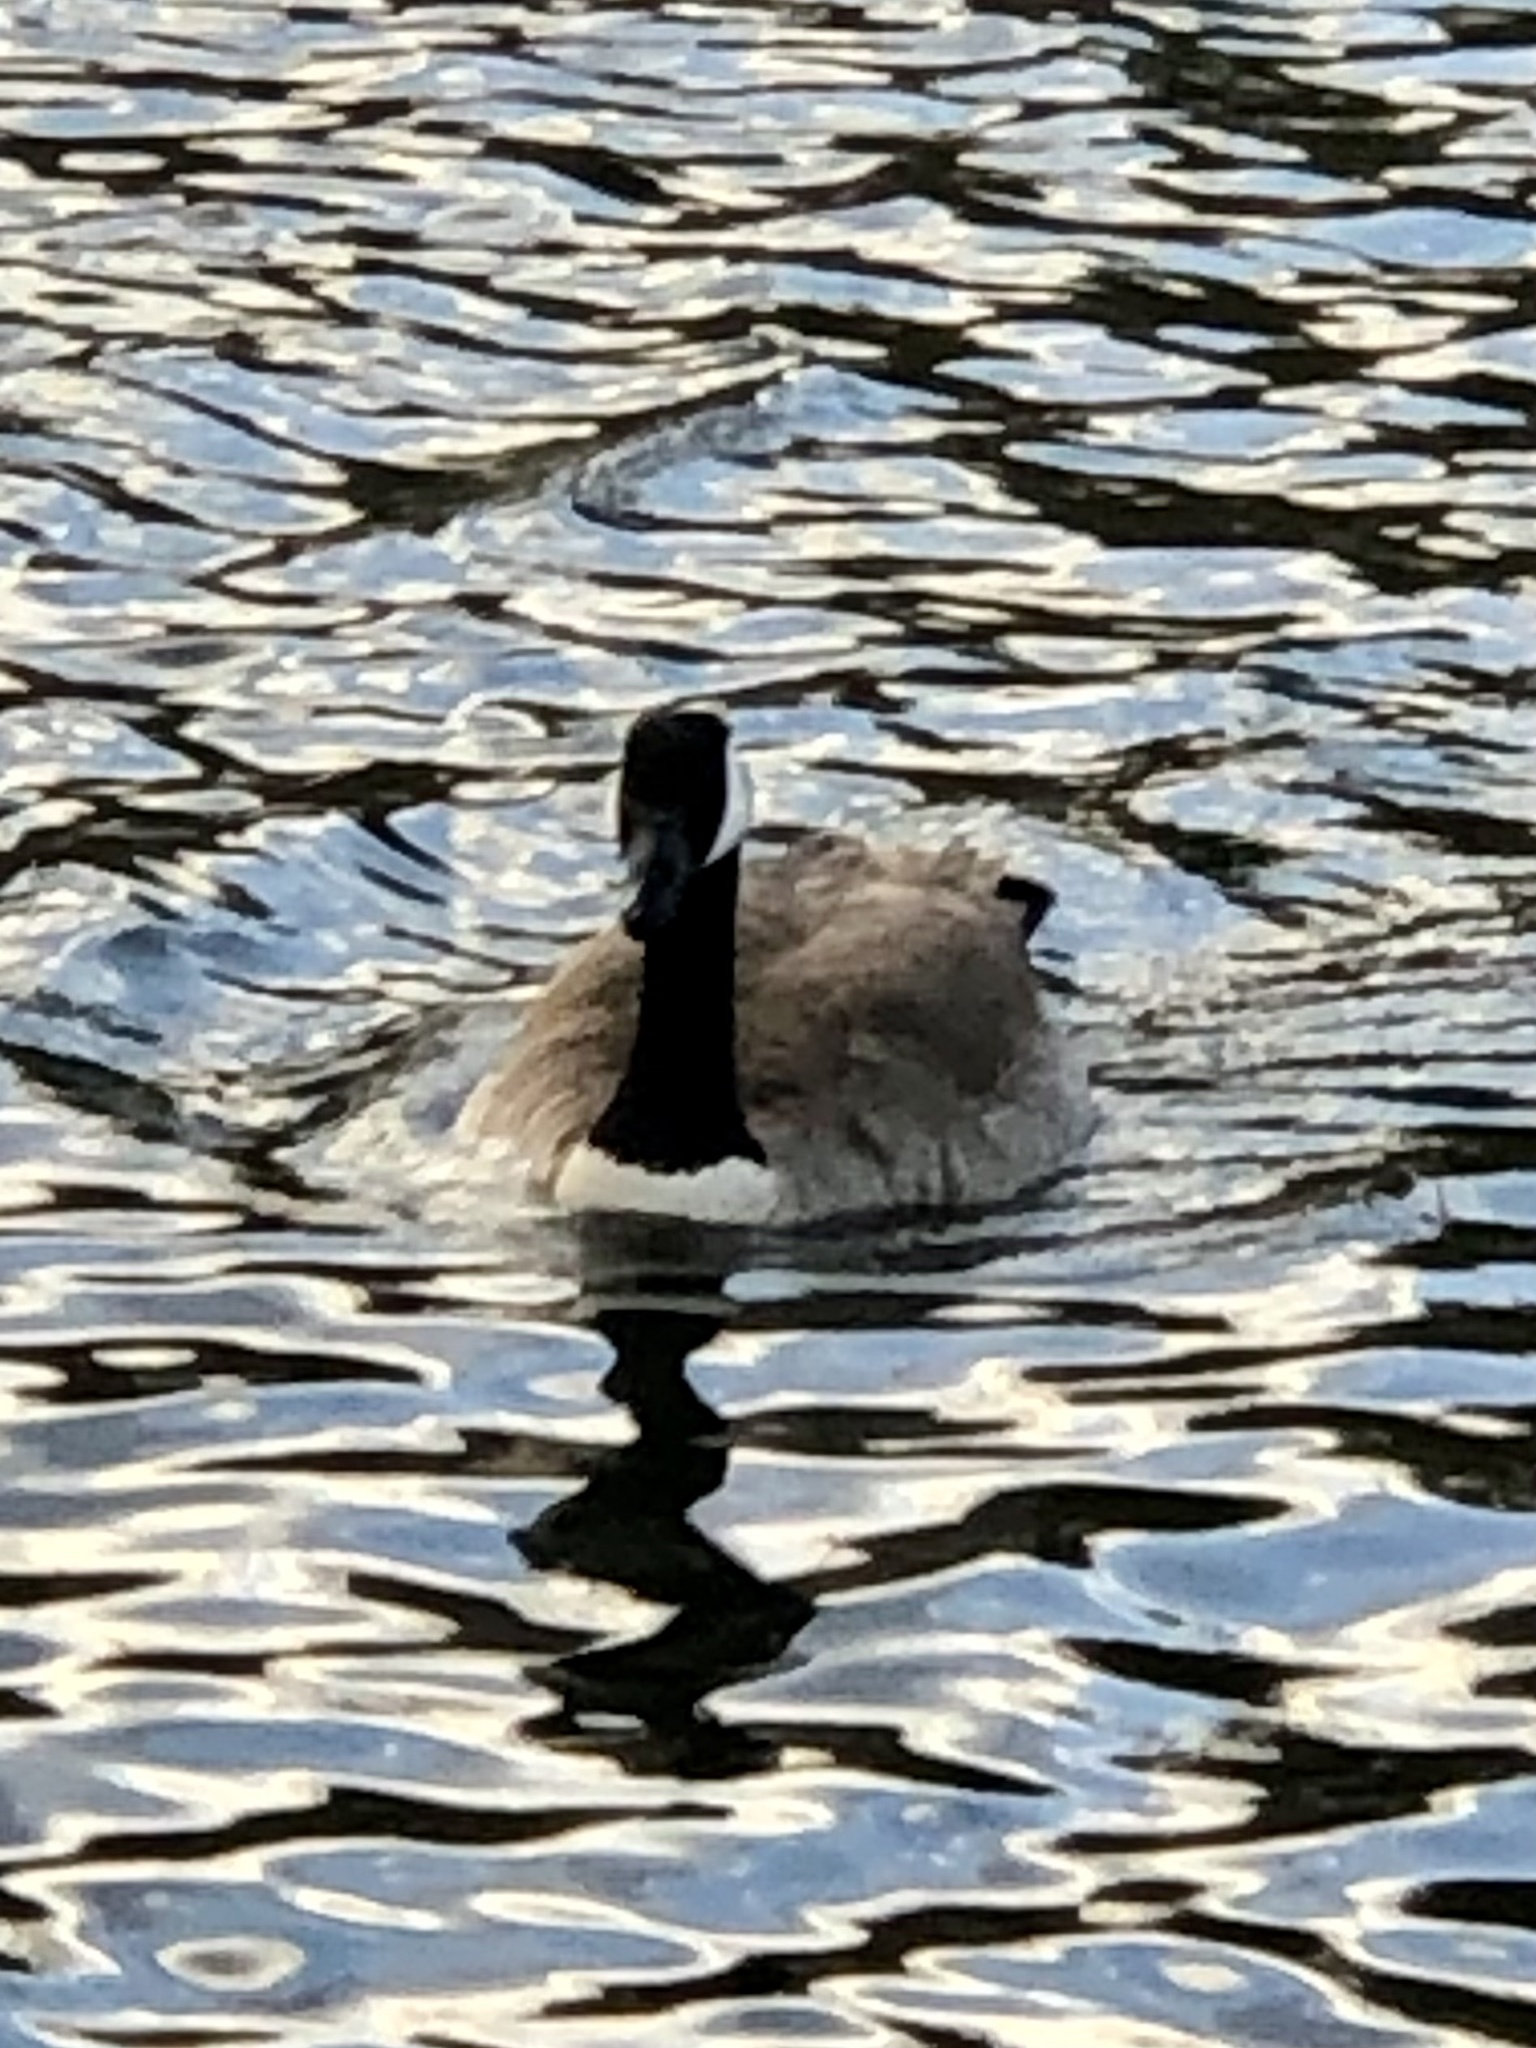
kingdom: Animalia
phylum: Chordata
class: Aves
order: Anseriformes
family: Anatidae
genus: Branta
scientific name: Branta canadensis
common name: Canada goose
